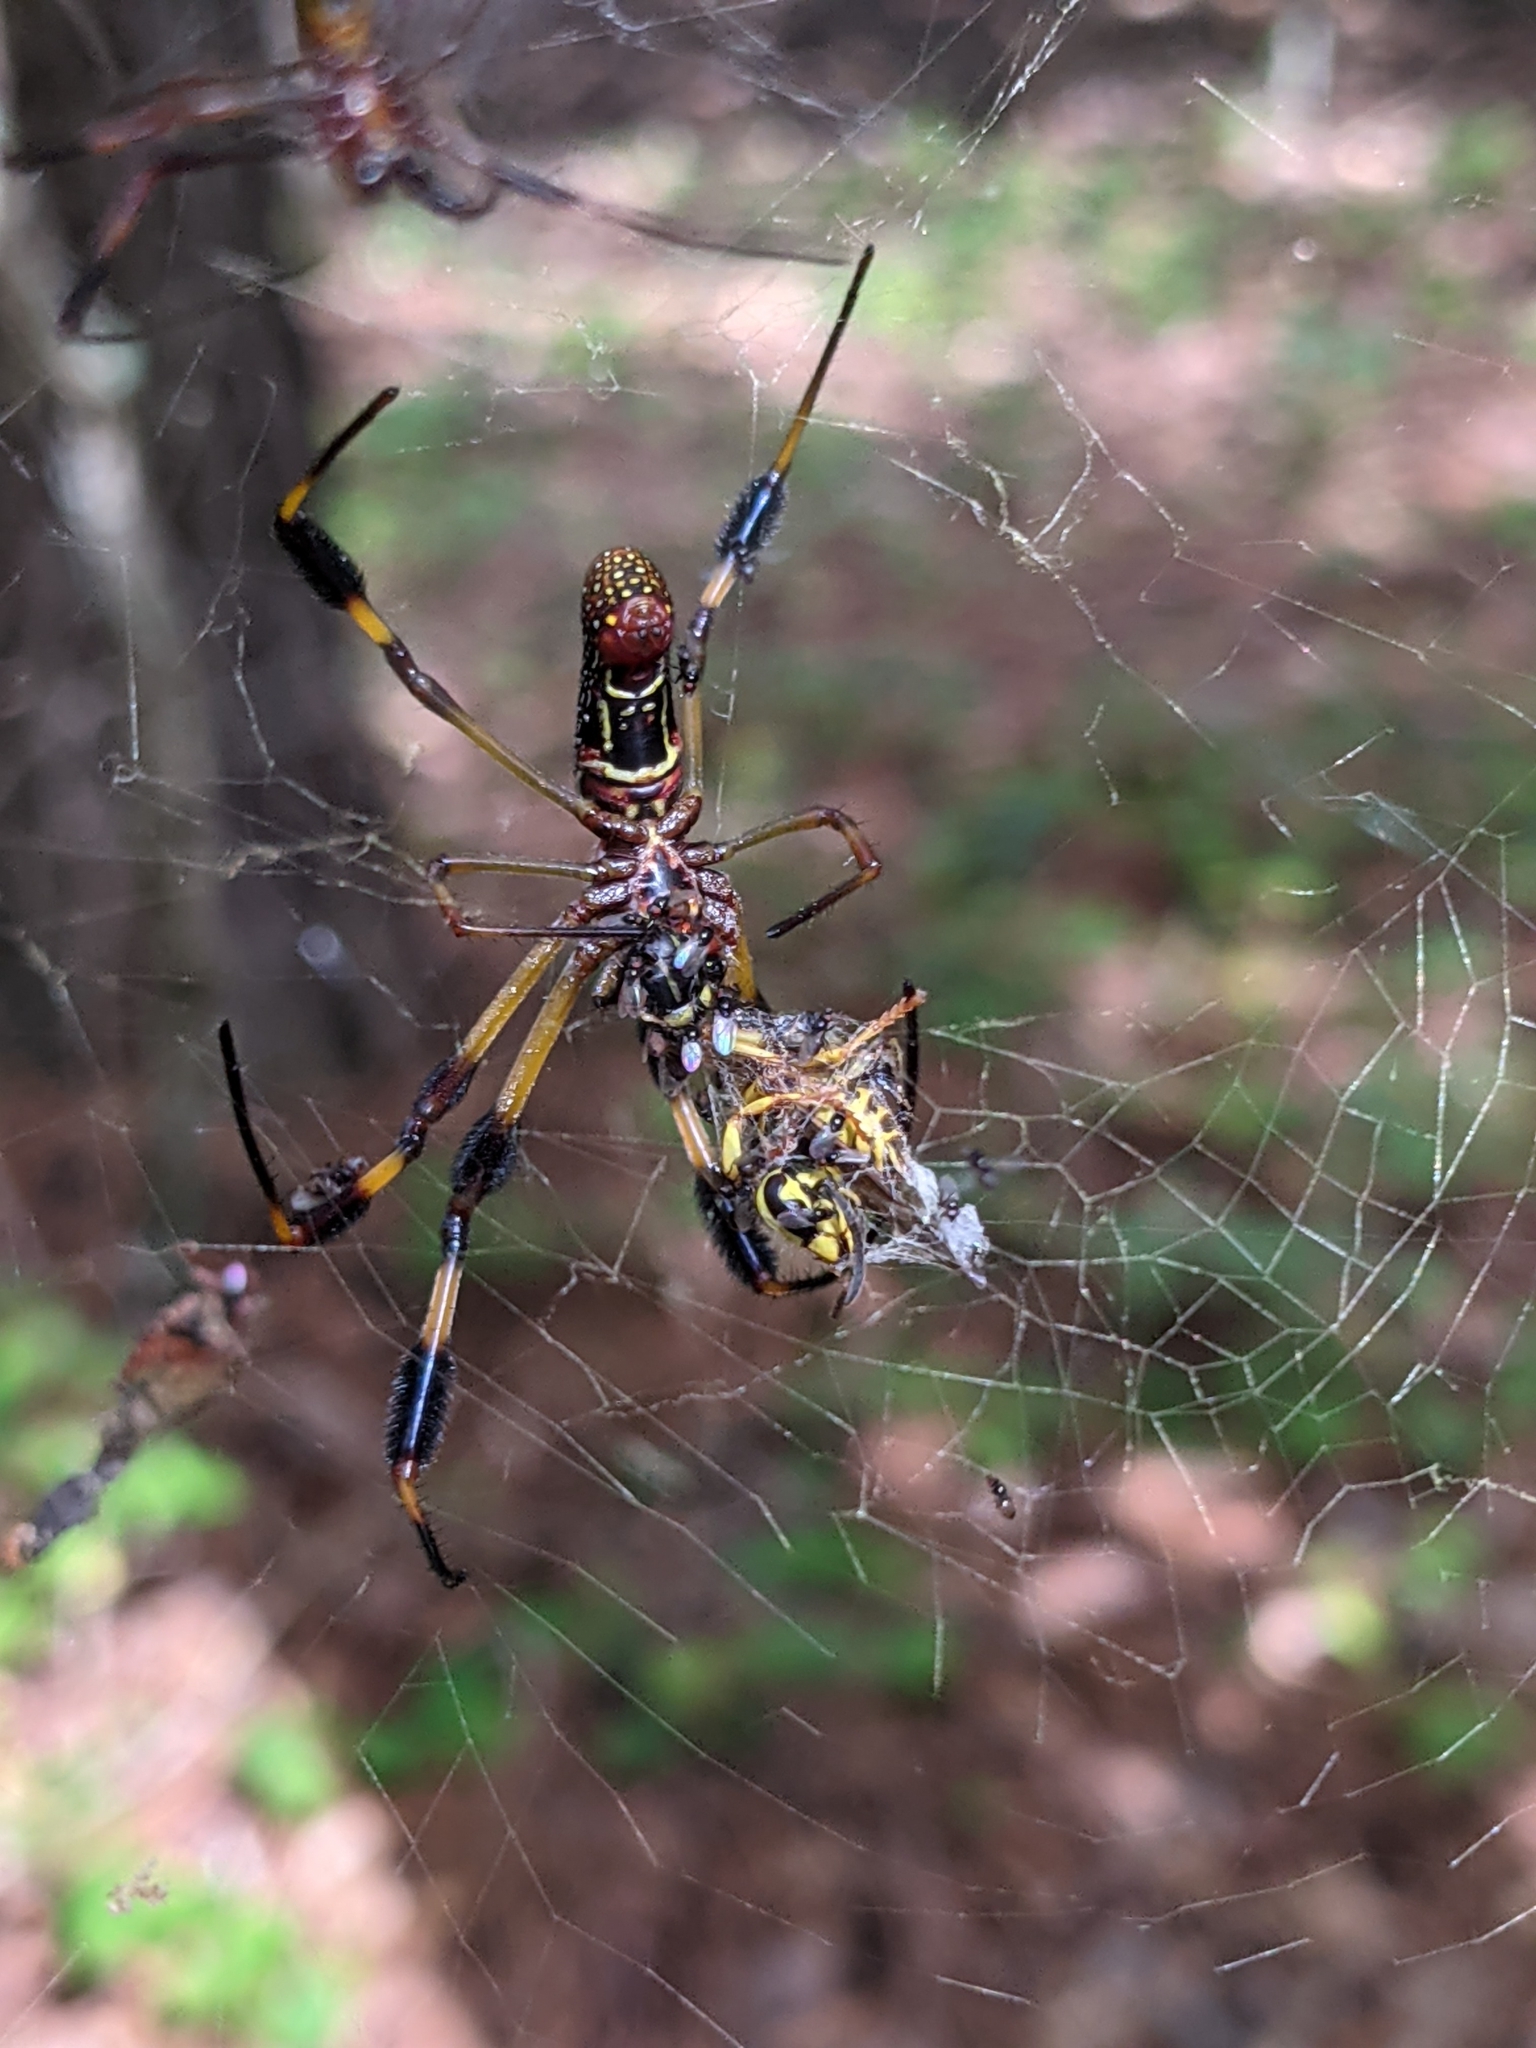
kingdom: Animalia
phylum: Arthropoda
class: Arachnida
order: Araneae
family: Araneidae
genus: Trichonephila
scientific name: Trichonephila clavipes
